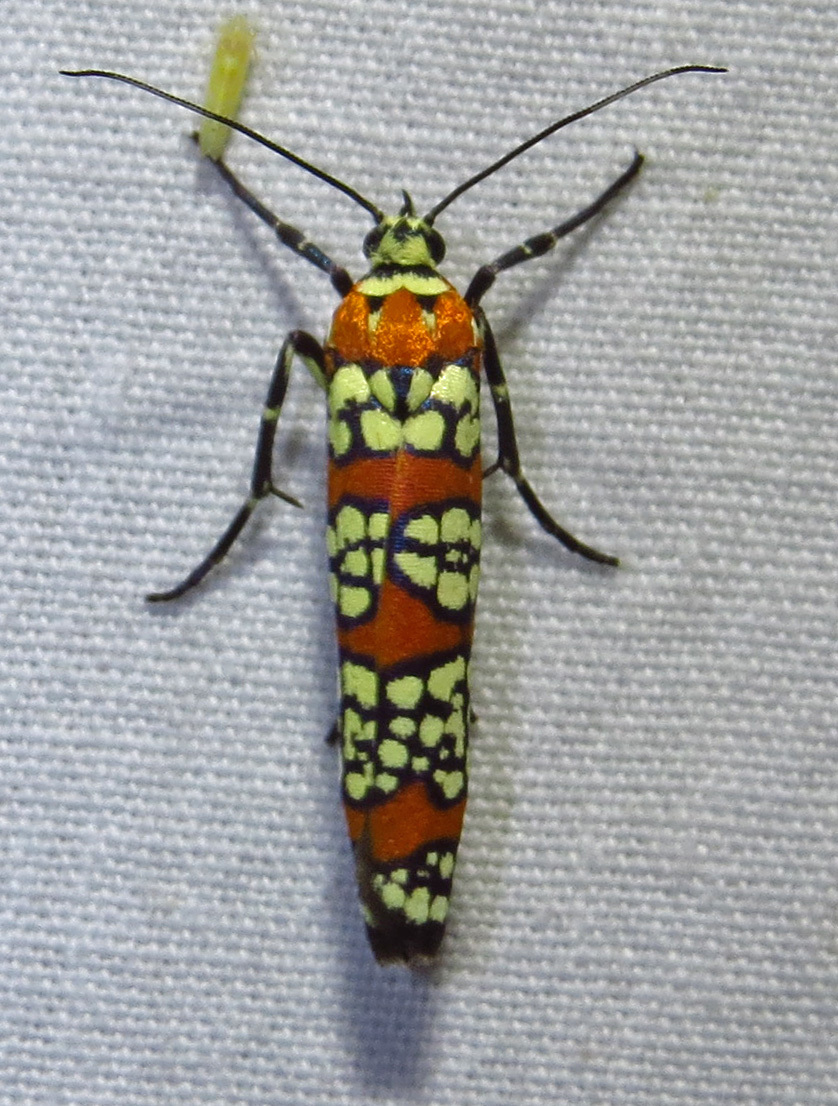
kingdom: Animalia
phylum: Arthropoda
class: Insecta
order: Lepidoptera
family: Attevidae
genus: Atteva
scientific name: Atteva punctella
